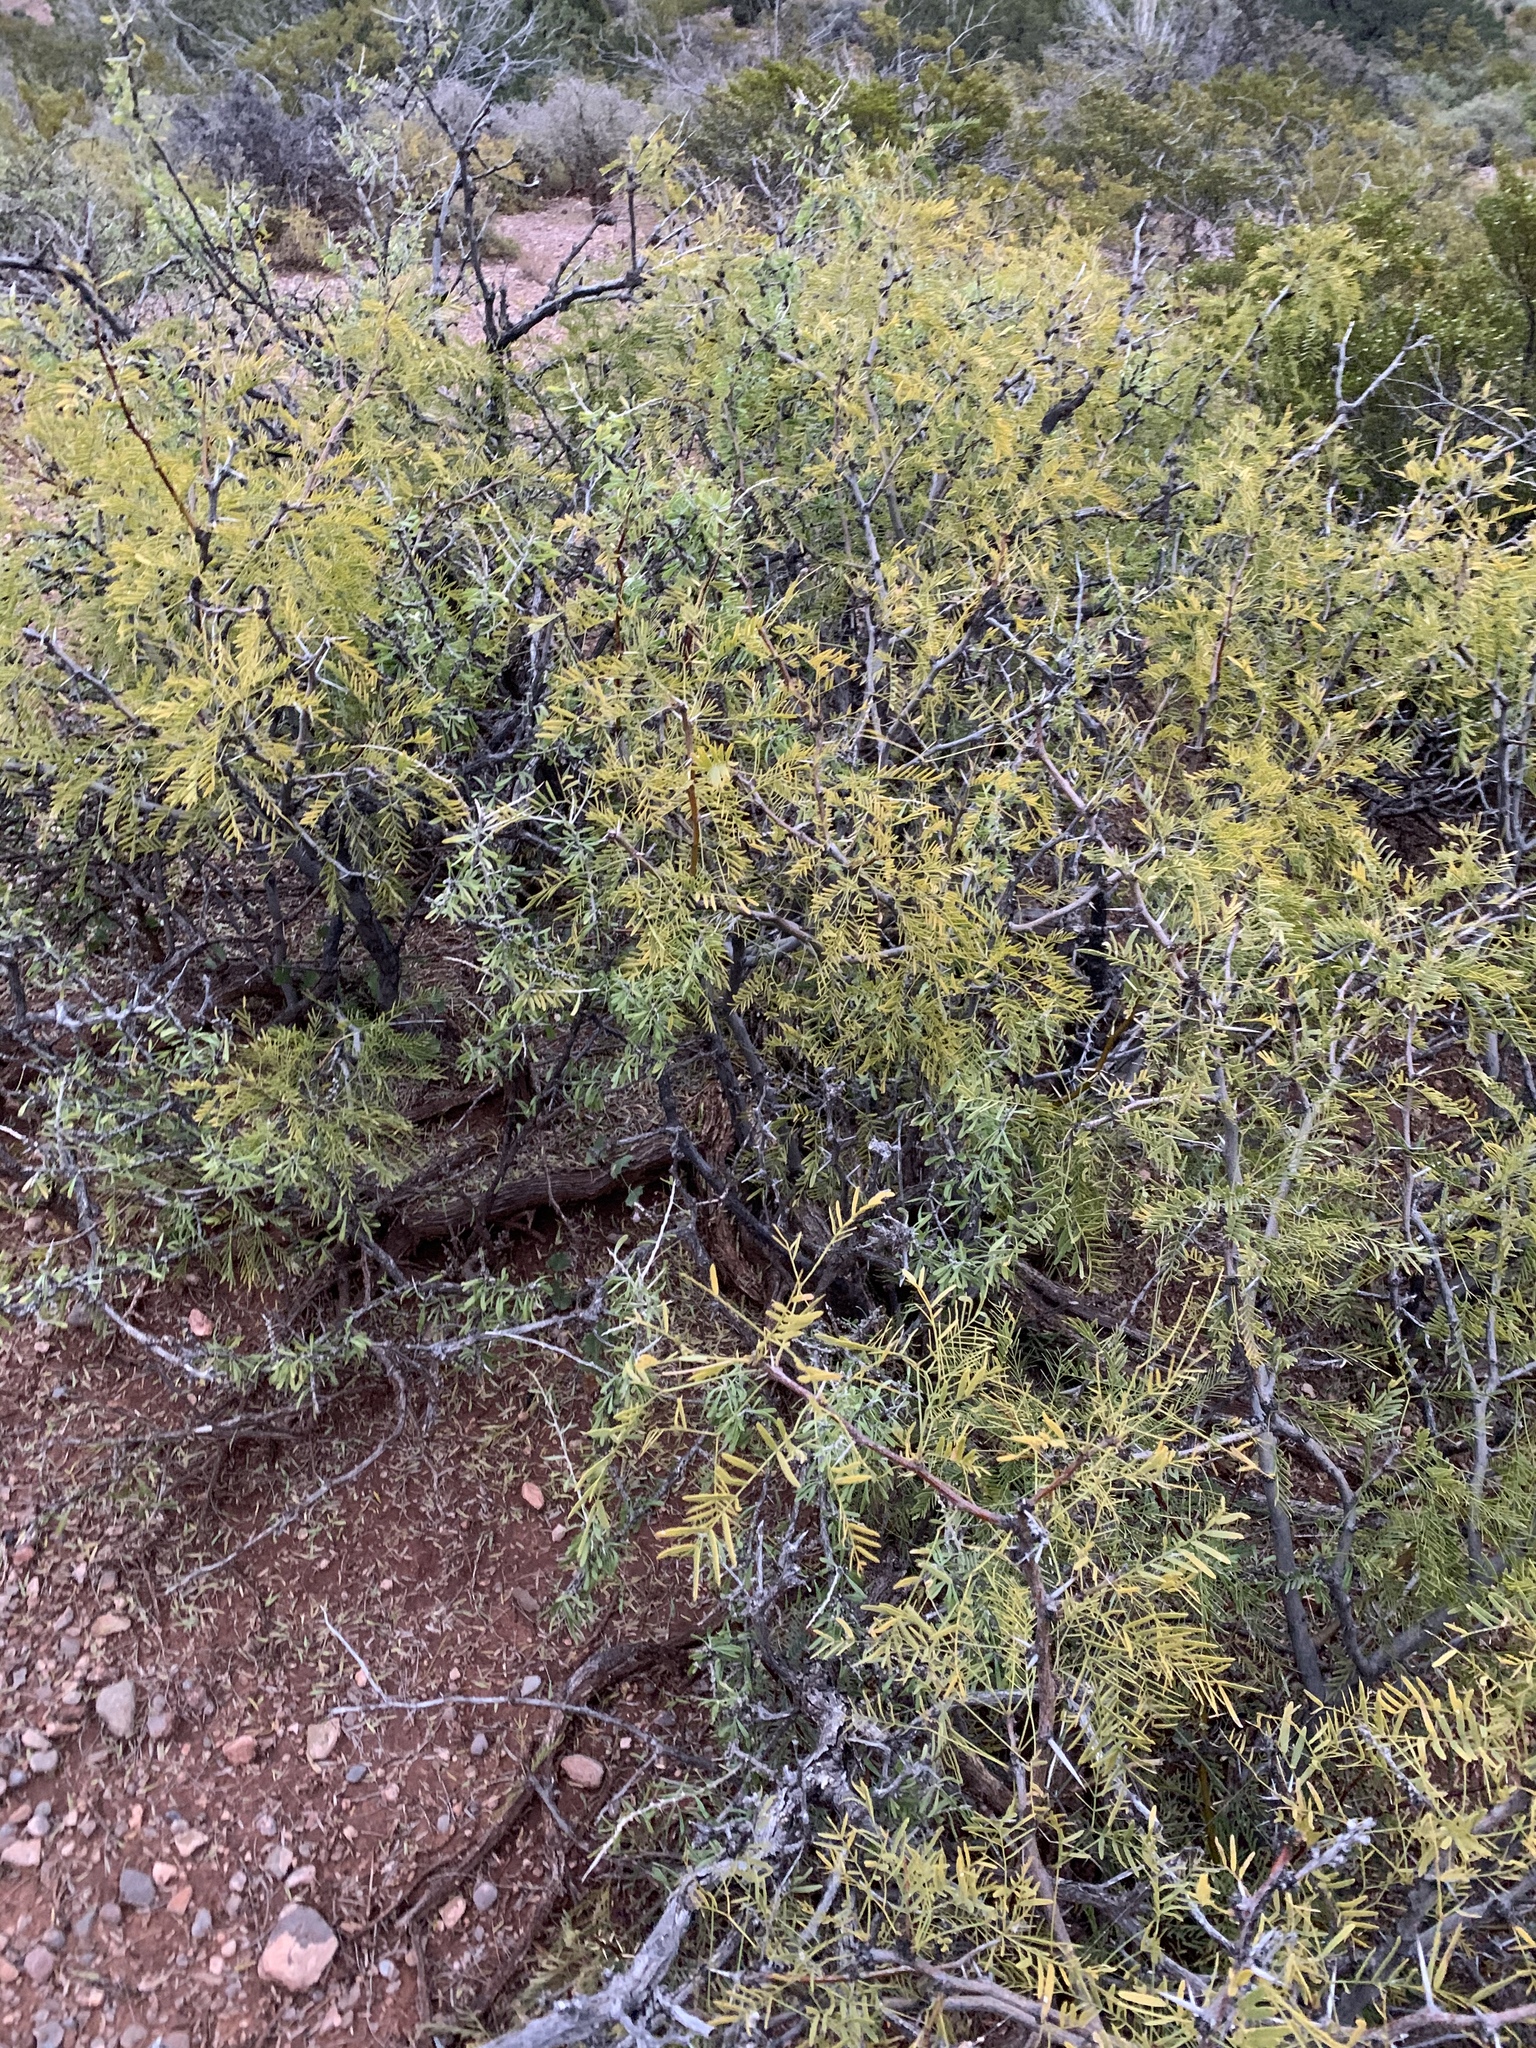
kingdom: Plantae
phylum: Tracheophyta
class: Magnoliopsida
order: Fabales
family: Fabaceae
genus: Prosopis
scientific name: Prosopis glandulosa
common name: Honey mesquite
